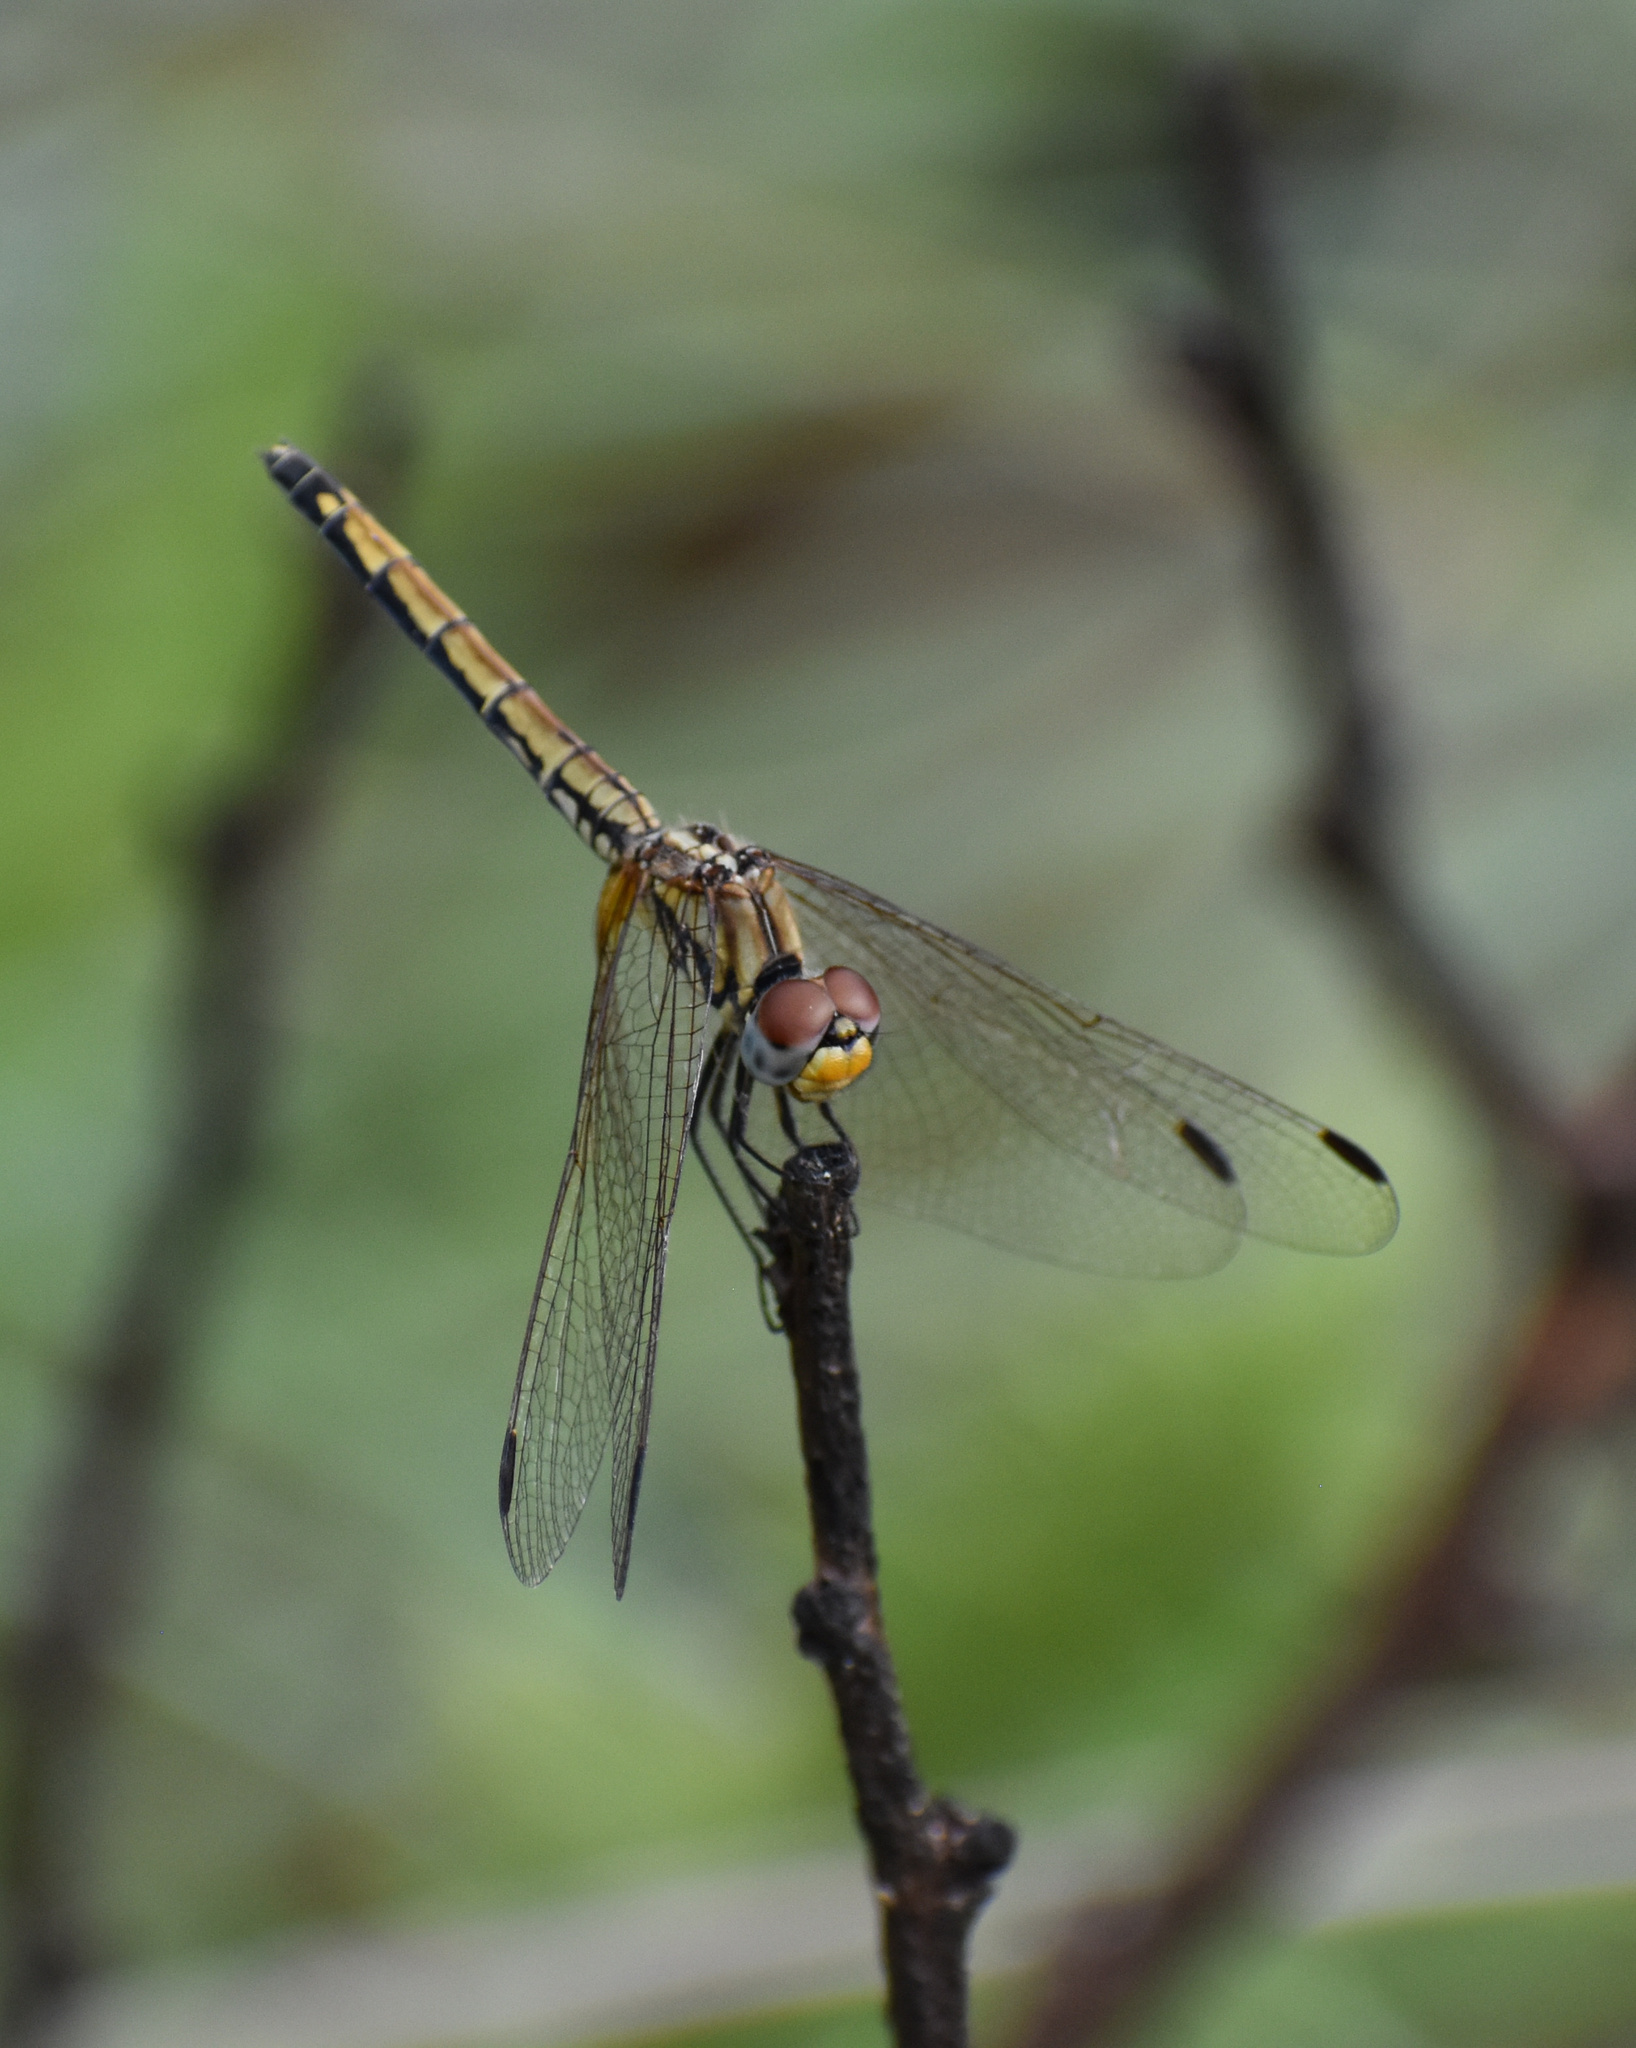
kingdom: Animalia
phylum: Arthropoda
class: Insecta
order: Odonata
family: Libellulidae
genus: Trithemis
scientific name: Trithemis arteriosa
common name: Red-veined dropwing
